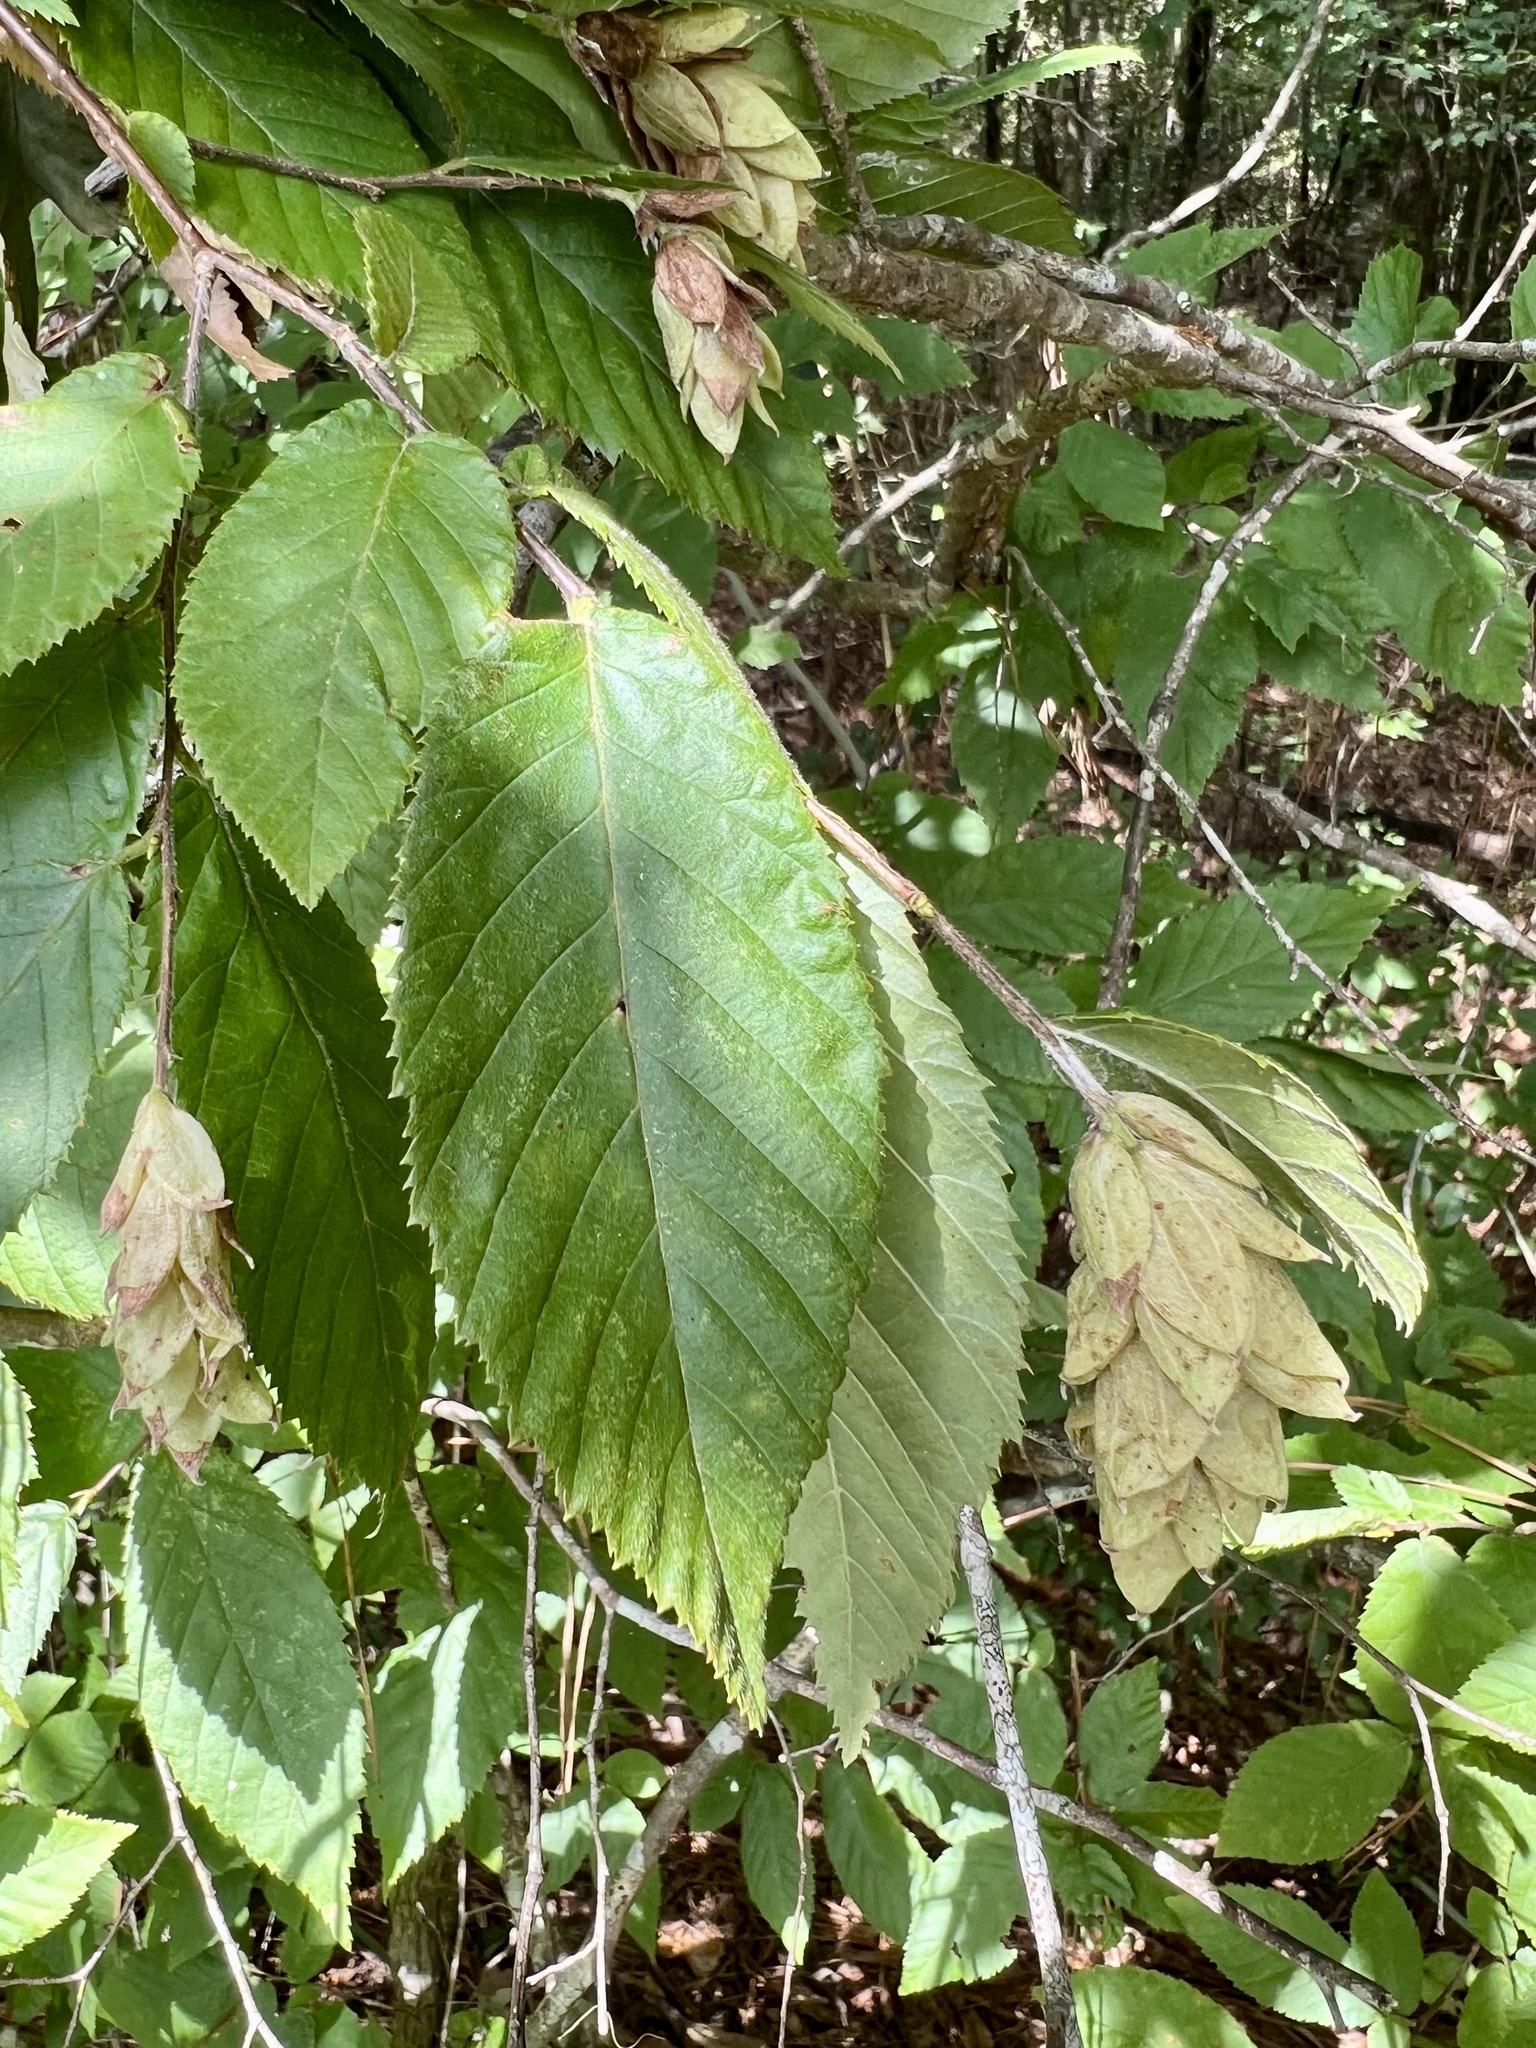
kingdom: Plantae
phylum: Tracheophyta
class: Magnoliopsida
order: Fagales
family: Betulaceae
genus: Ostrya
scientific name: Ostrya virginiana
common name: Ironwood
